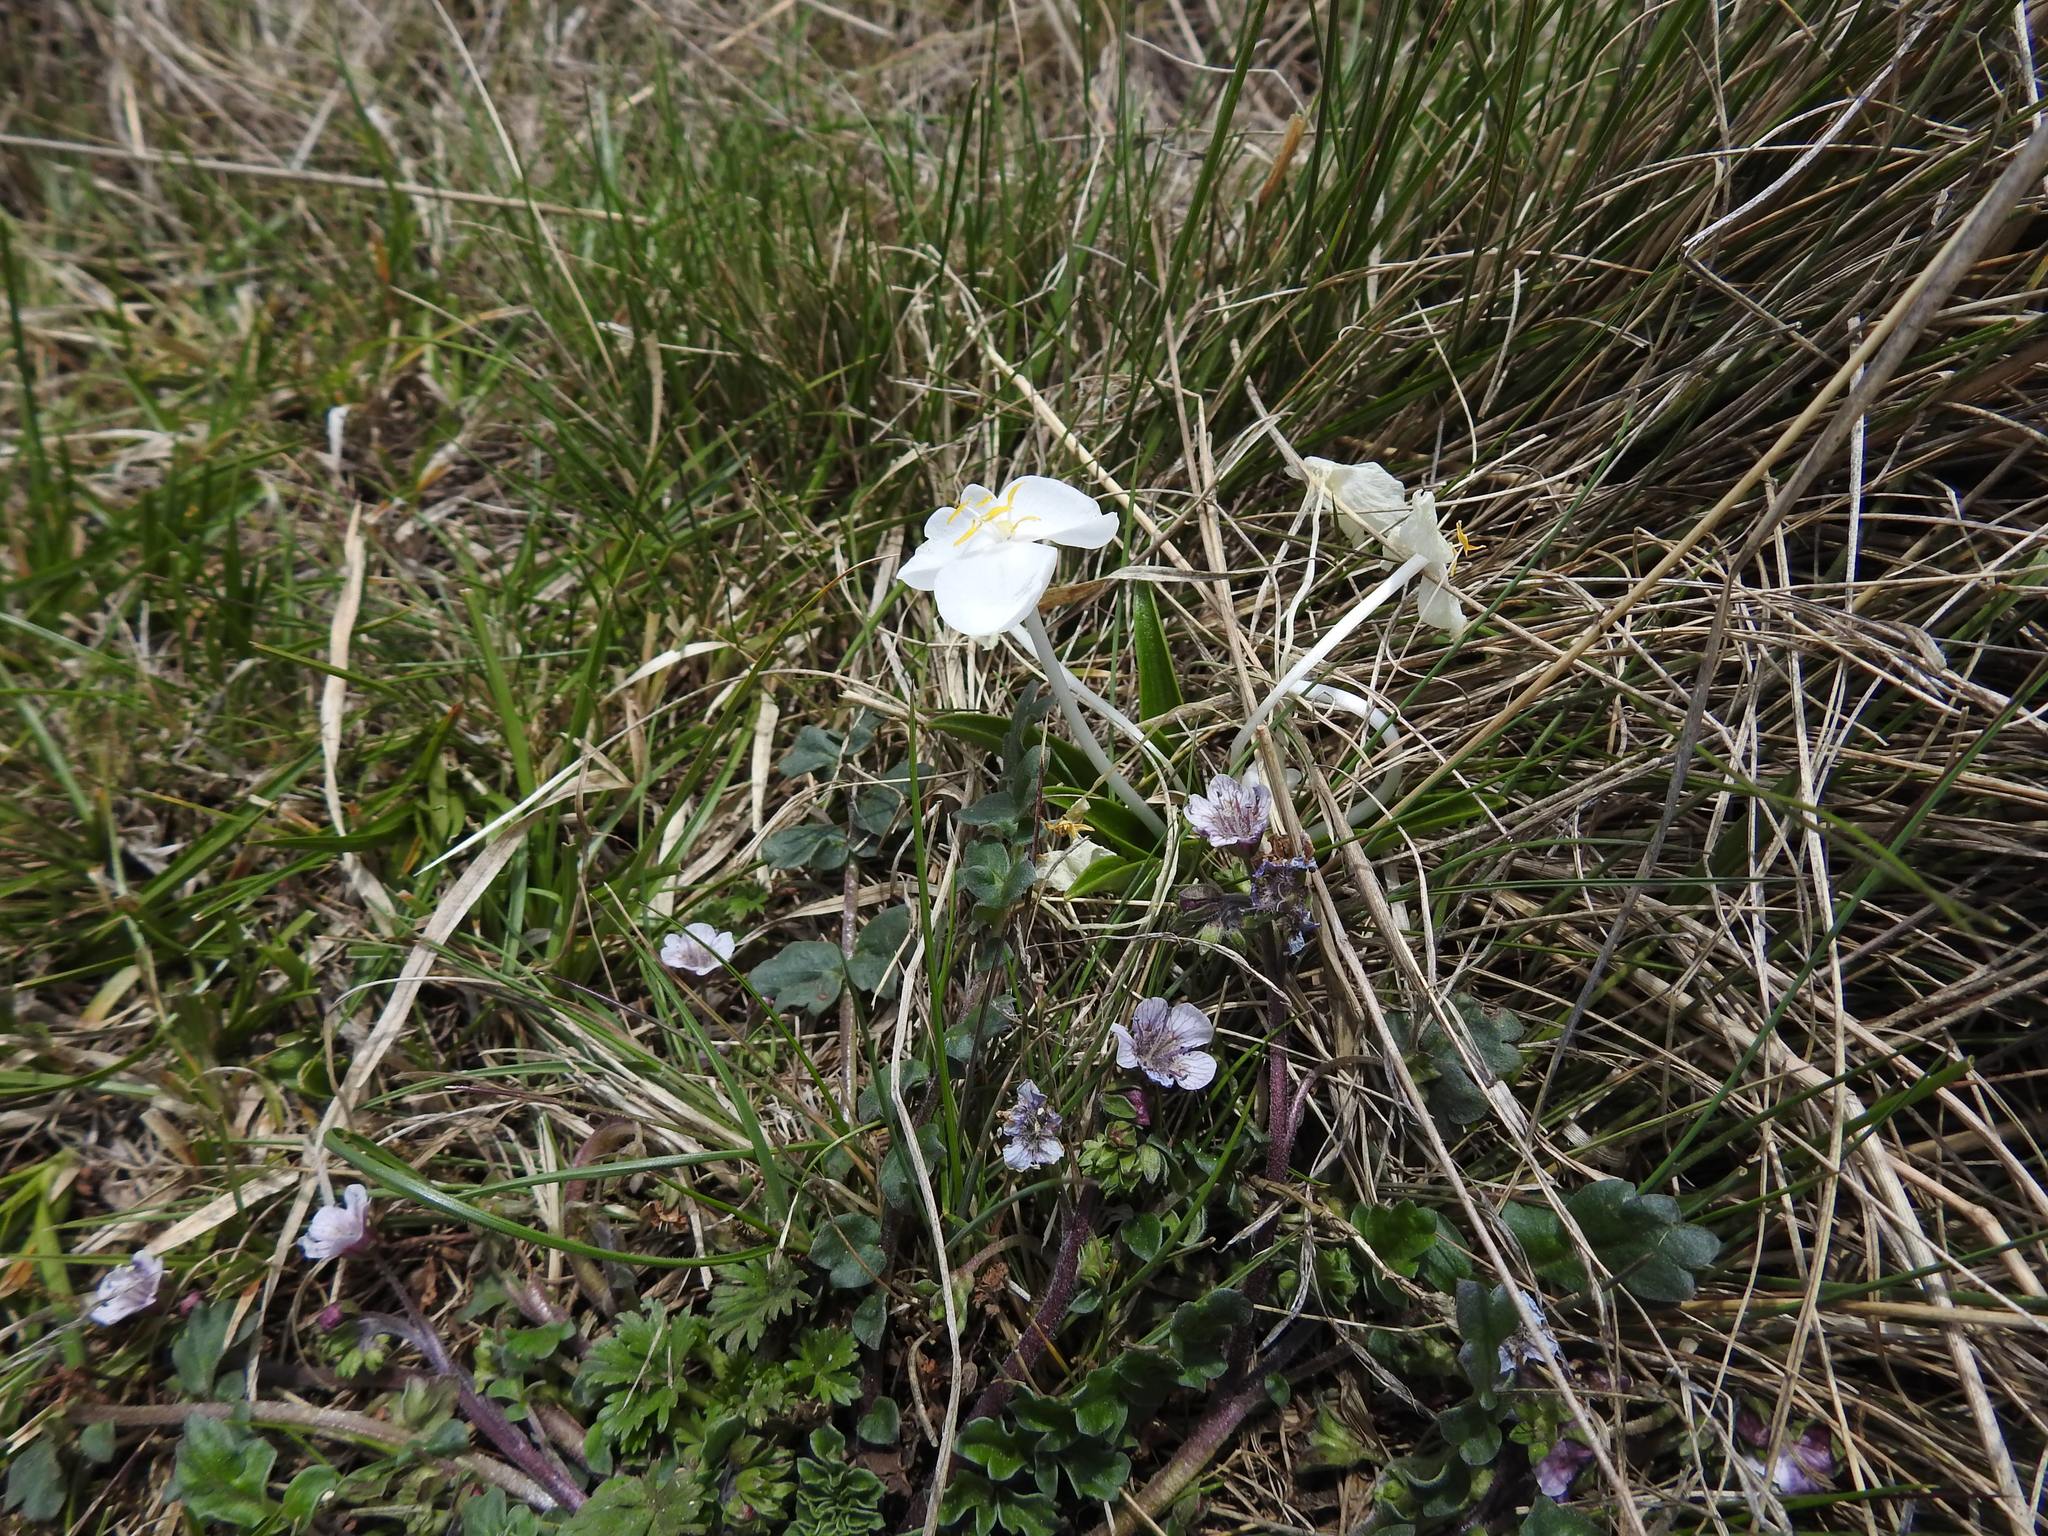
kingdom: Plantae
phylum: Tracheophyta
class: Magnoliopsida
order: Boraginales
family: Hydrophyllaceae
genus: Phacelia
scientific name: Phacelia platycarpa
